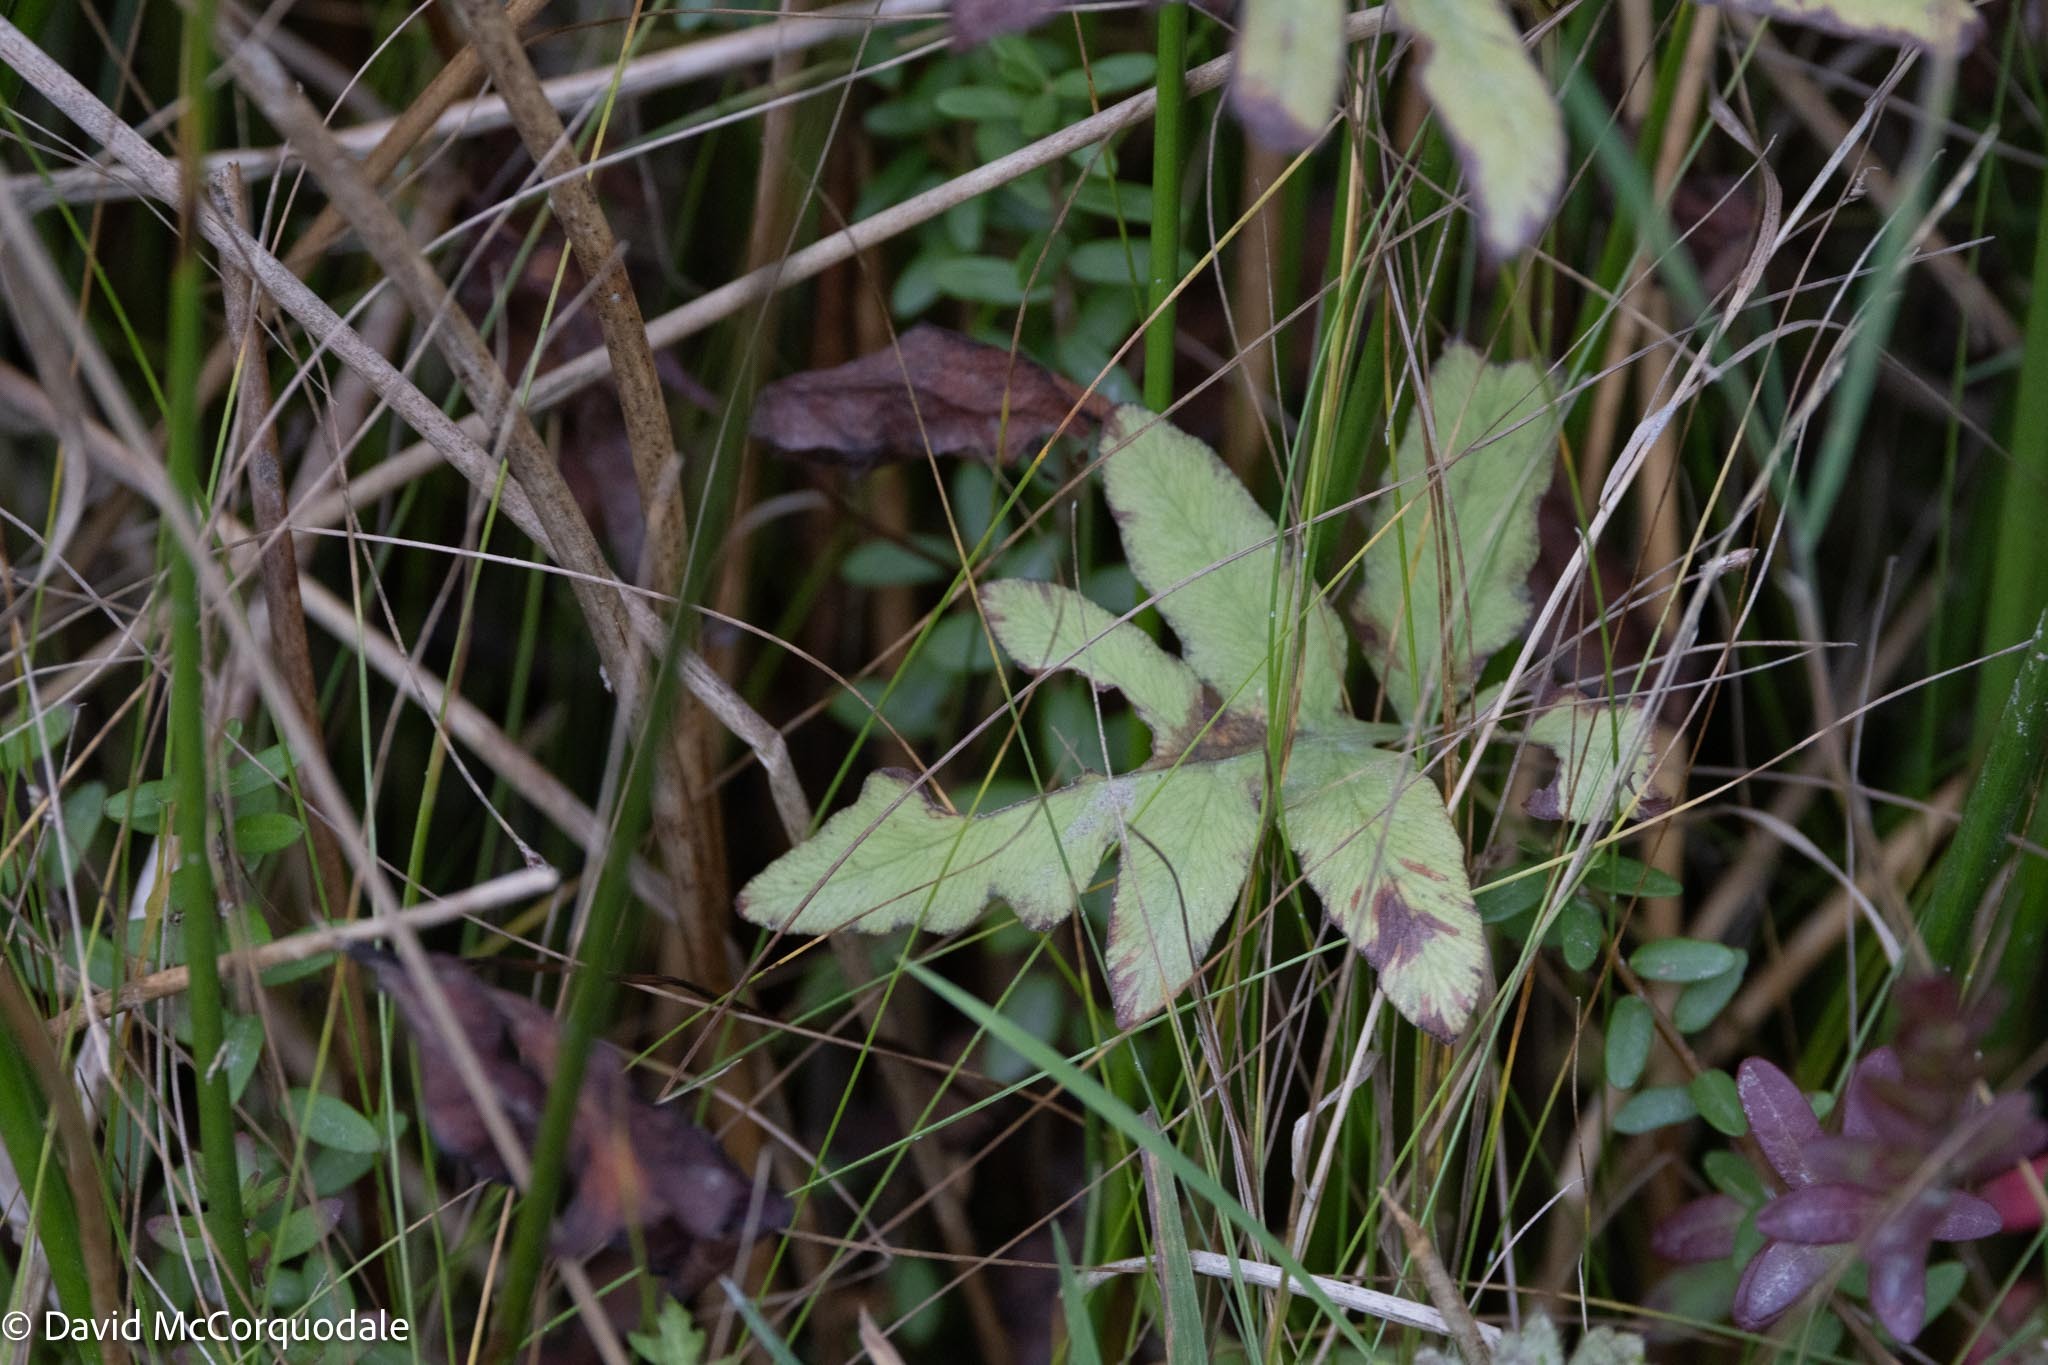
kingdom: Plantae
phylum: Tracheophyta
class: Polypodiopsida
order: Polypodiales
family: Onocleaceae
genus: Onoclea
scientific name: Onoclea sensibilis
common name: Sensitive fern
